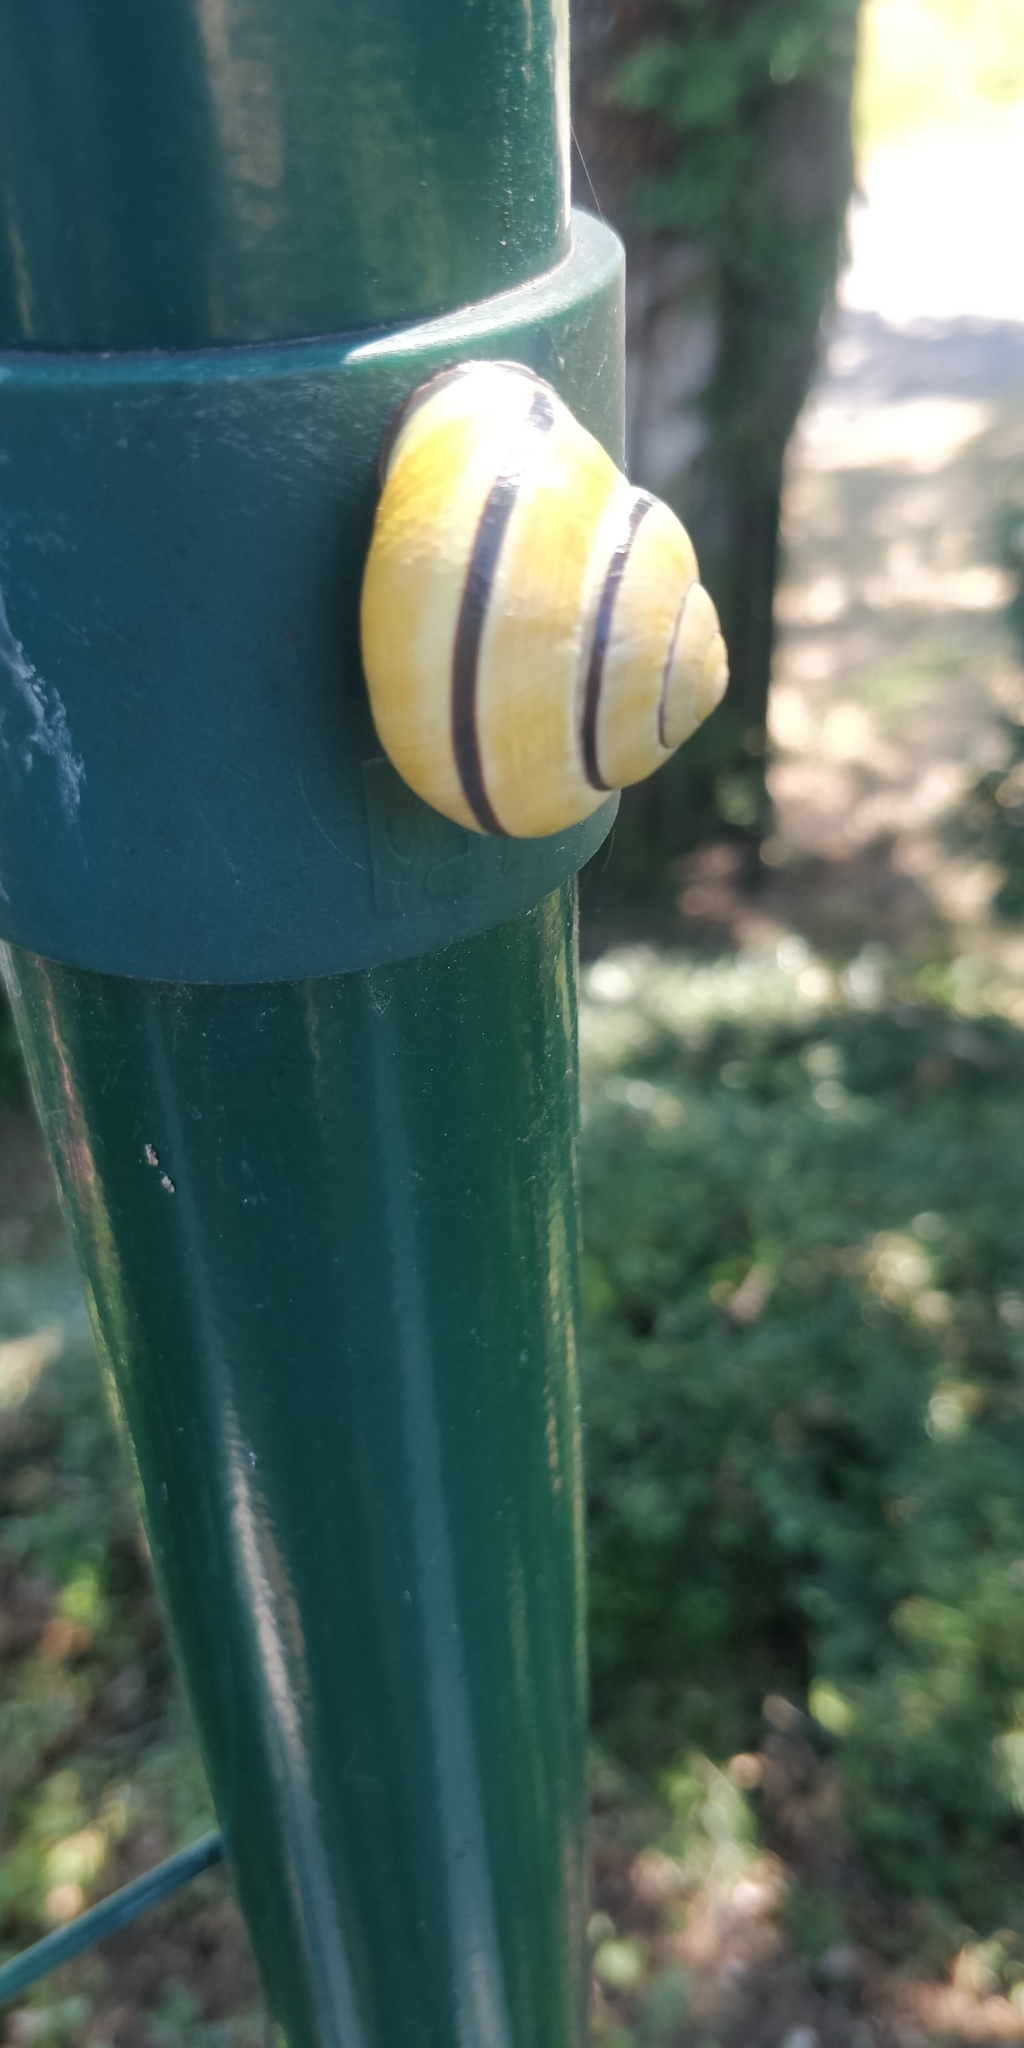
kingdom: Animalia
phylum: Mollusca
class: Gastropoda
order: Stylommatophora
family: Helicidae
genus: Cepaea
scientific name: Cepaea nemoralis
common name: Grovesnail
